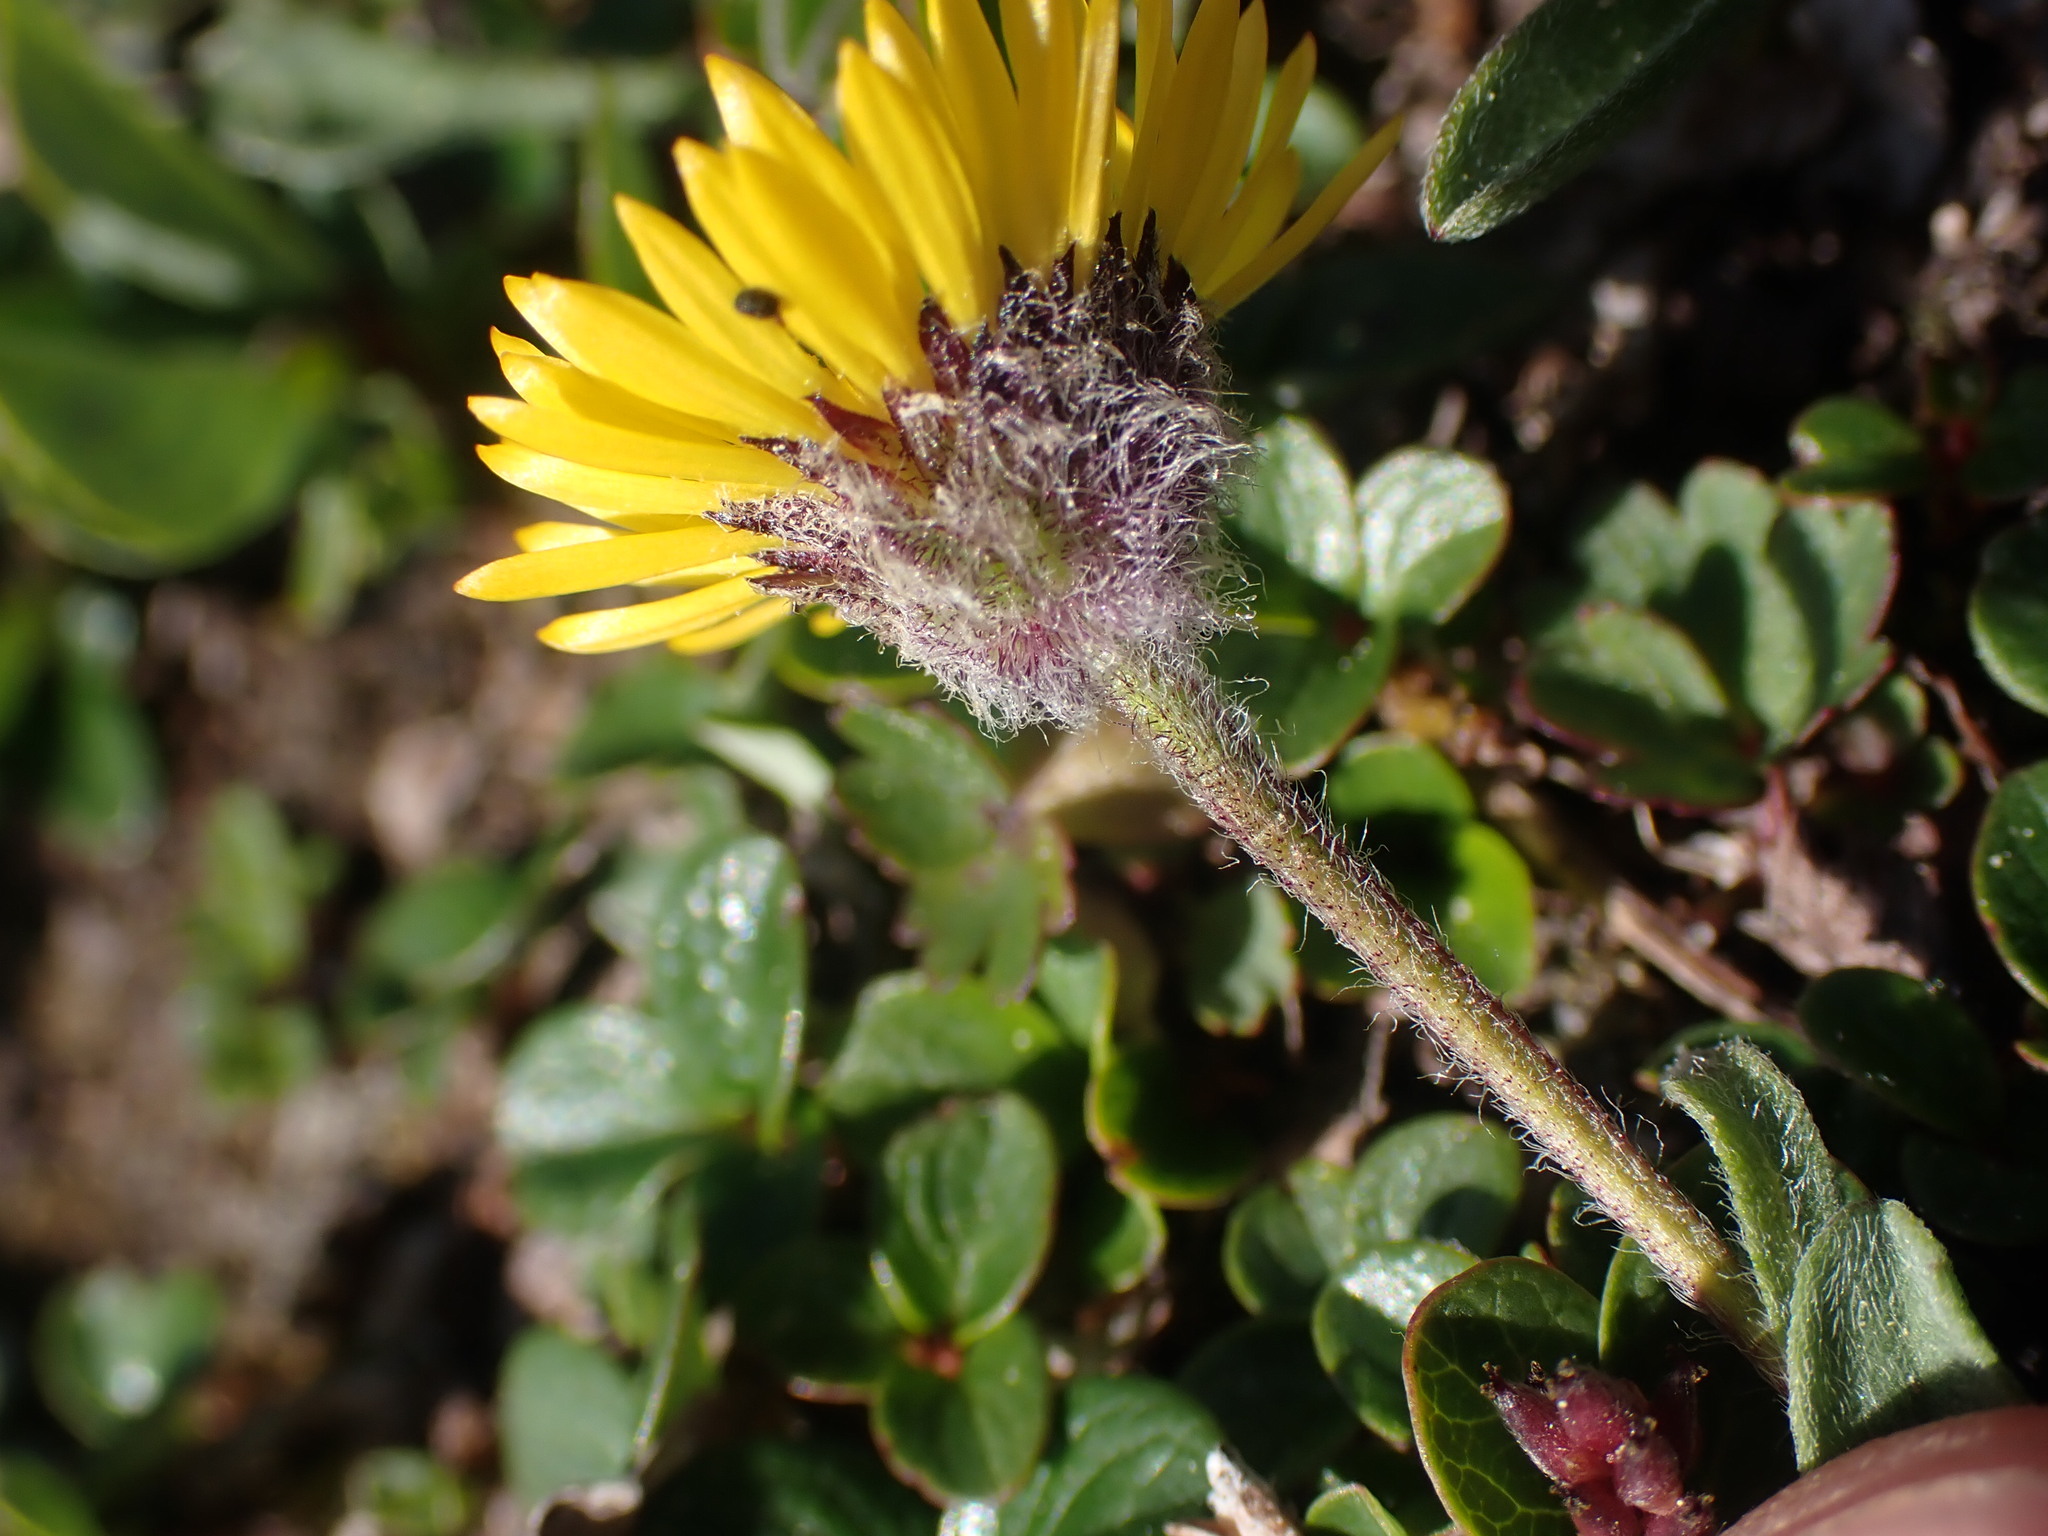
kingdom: Plantae
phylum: Tracheophyta
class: Magnoliopsida
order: Asterales
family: Asteraceae
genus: Erigeron
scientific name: Erigeron aureus
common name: Alpine yellow fleabane
